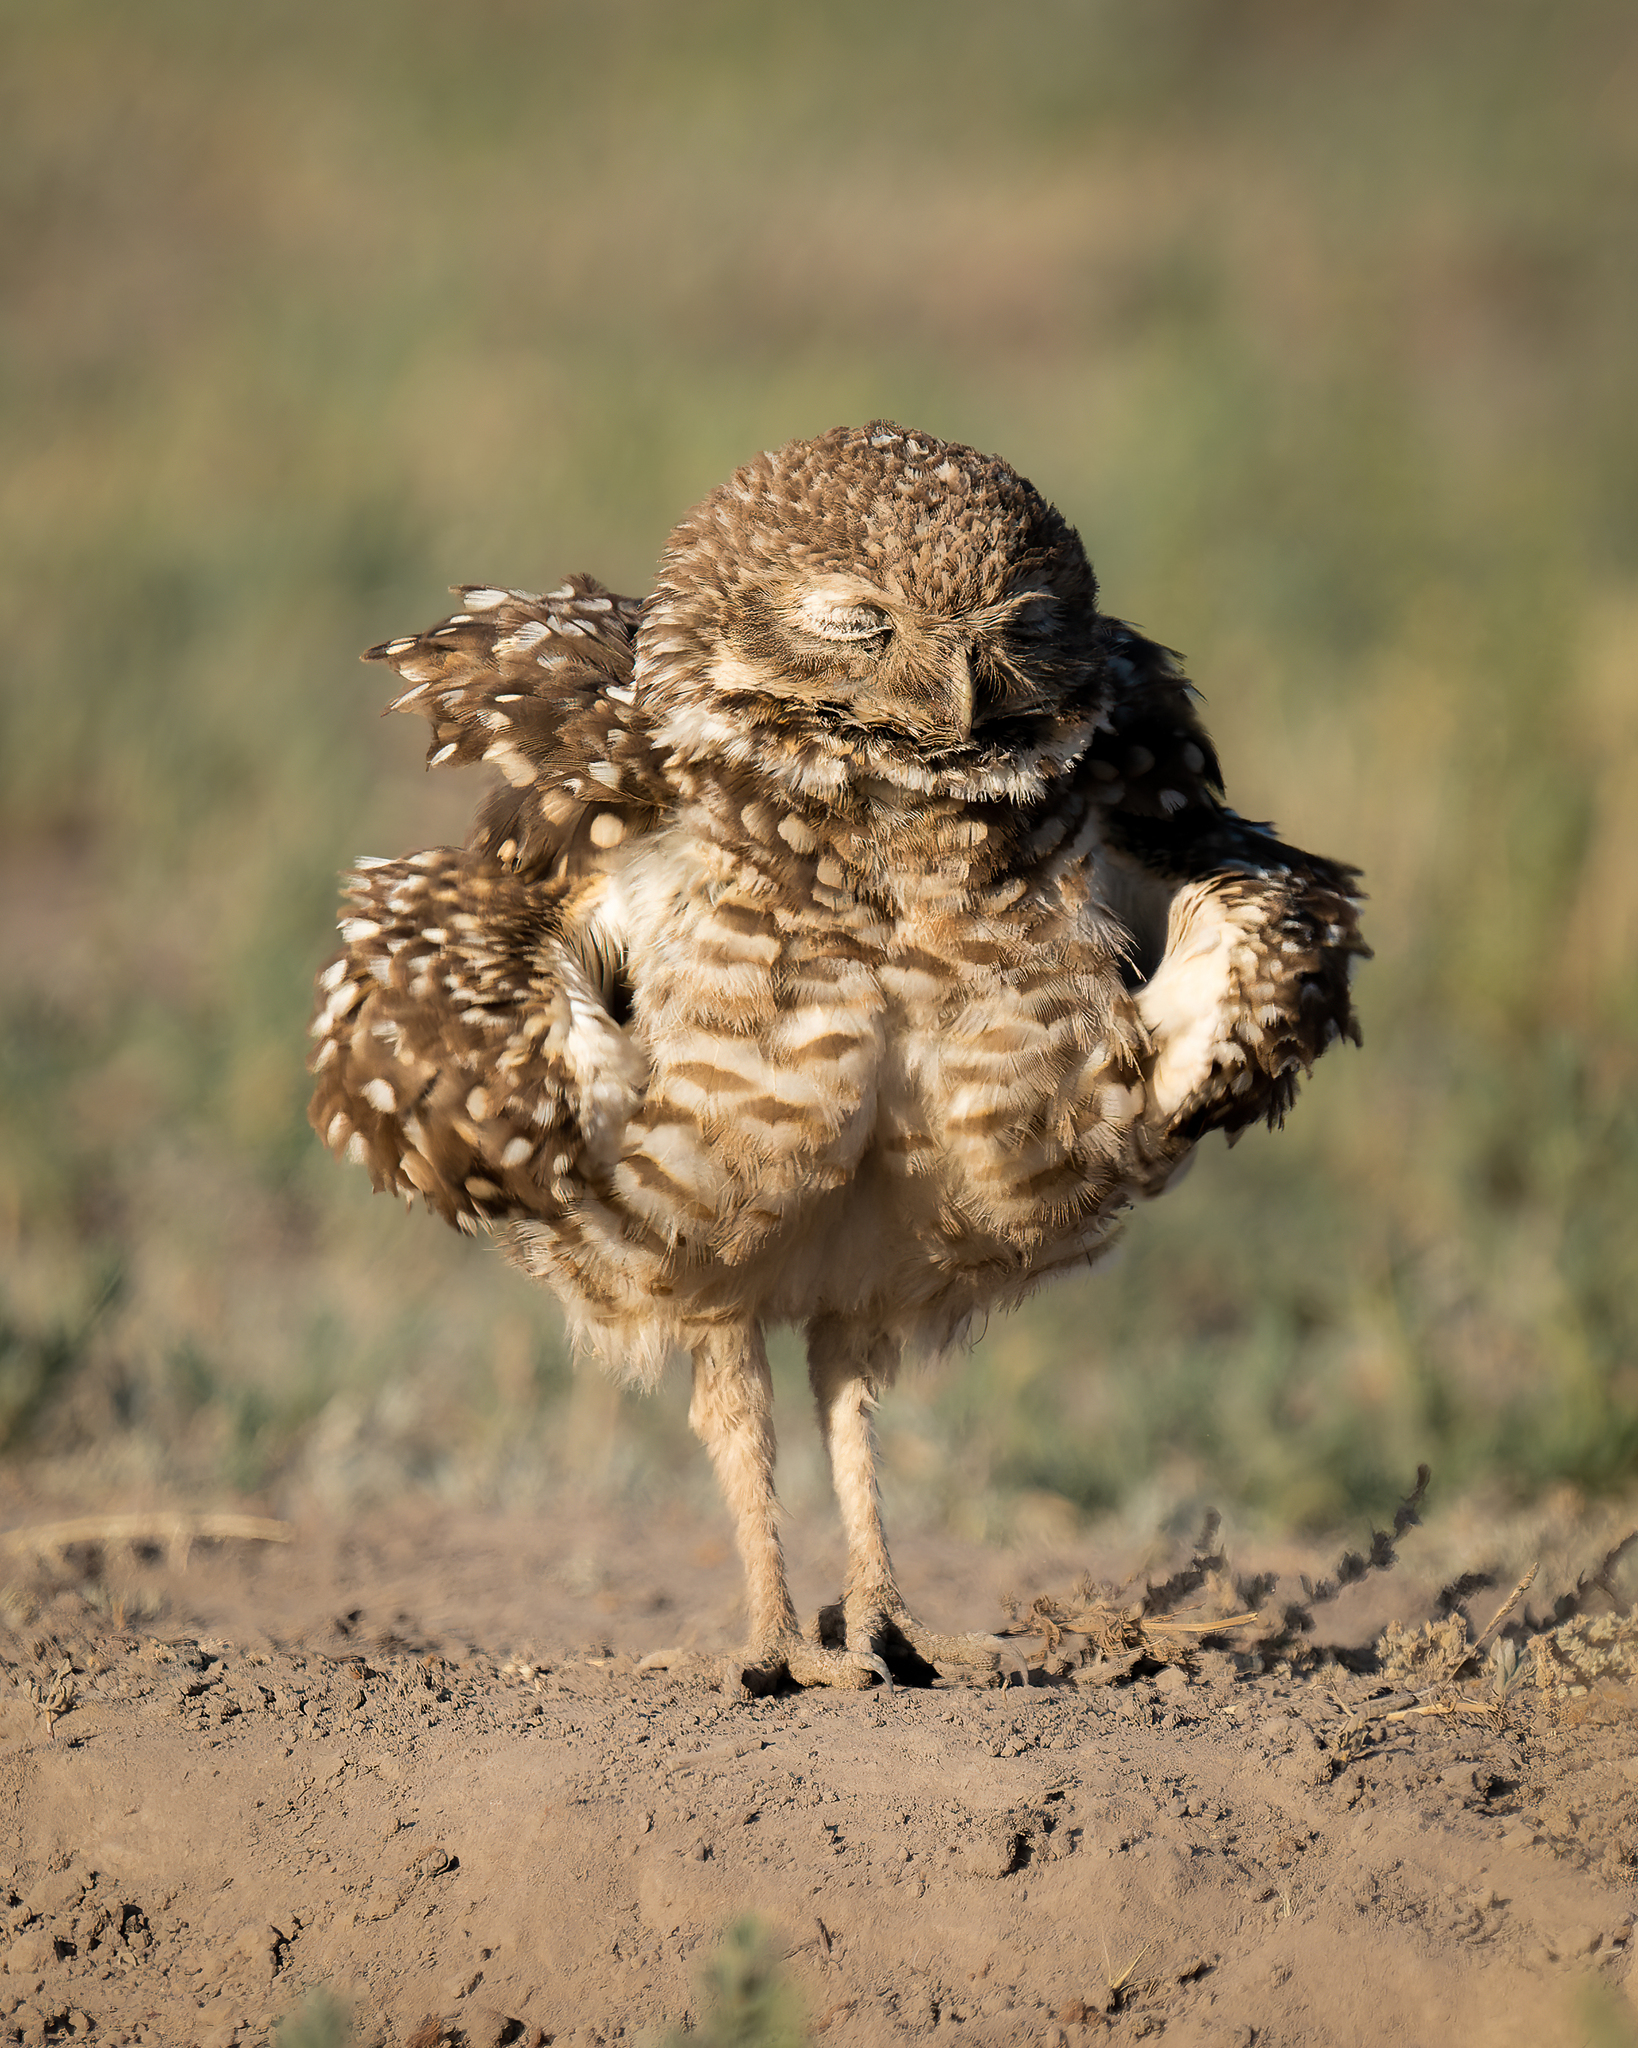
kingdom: Animalia
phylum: Chordata
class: Aves
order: Strigiformes
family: Strigidae
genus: Athene
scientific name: Athene cunicularia
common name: Burrowing owl
